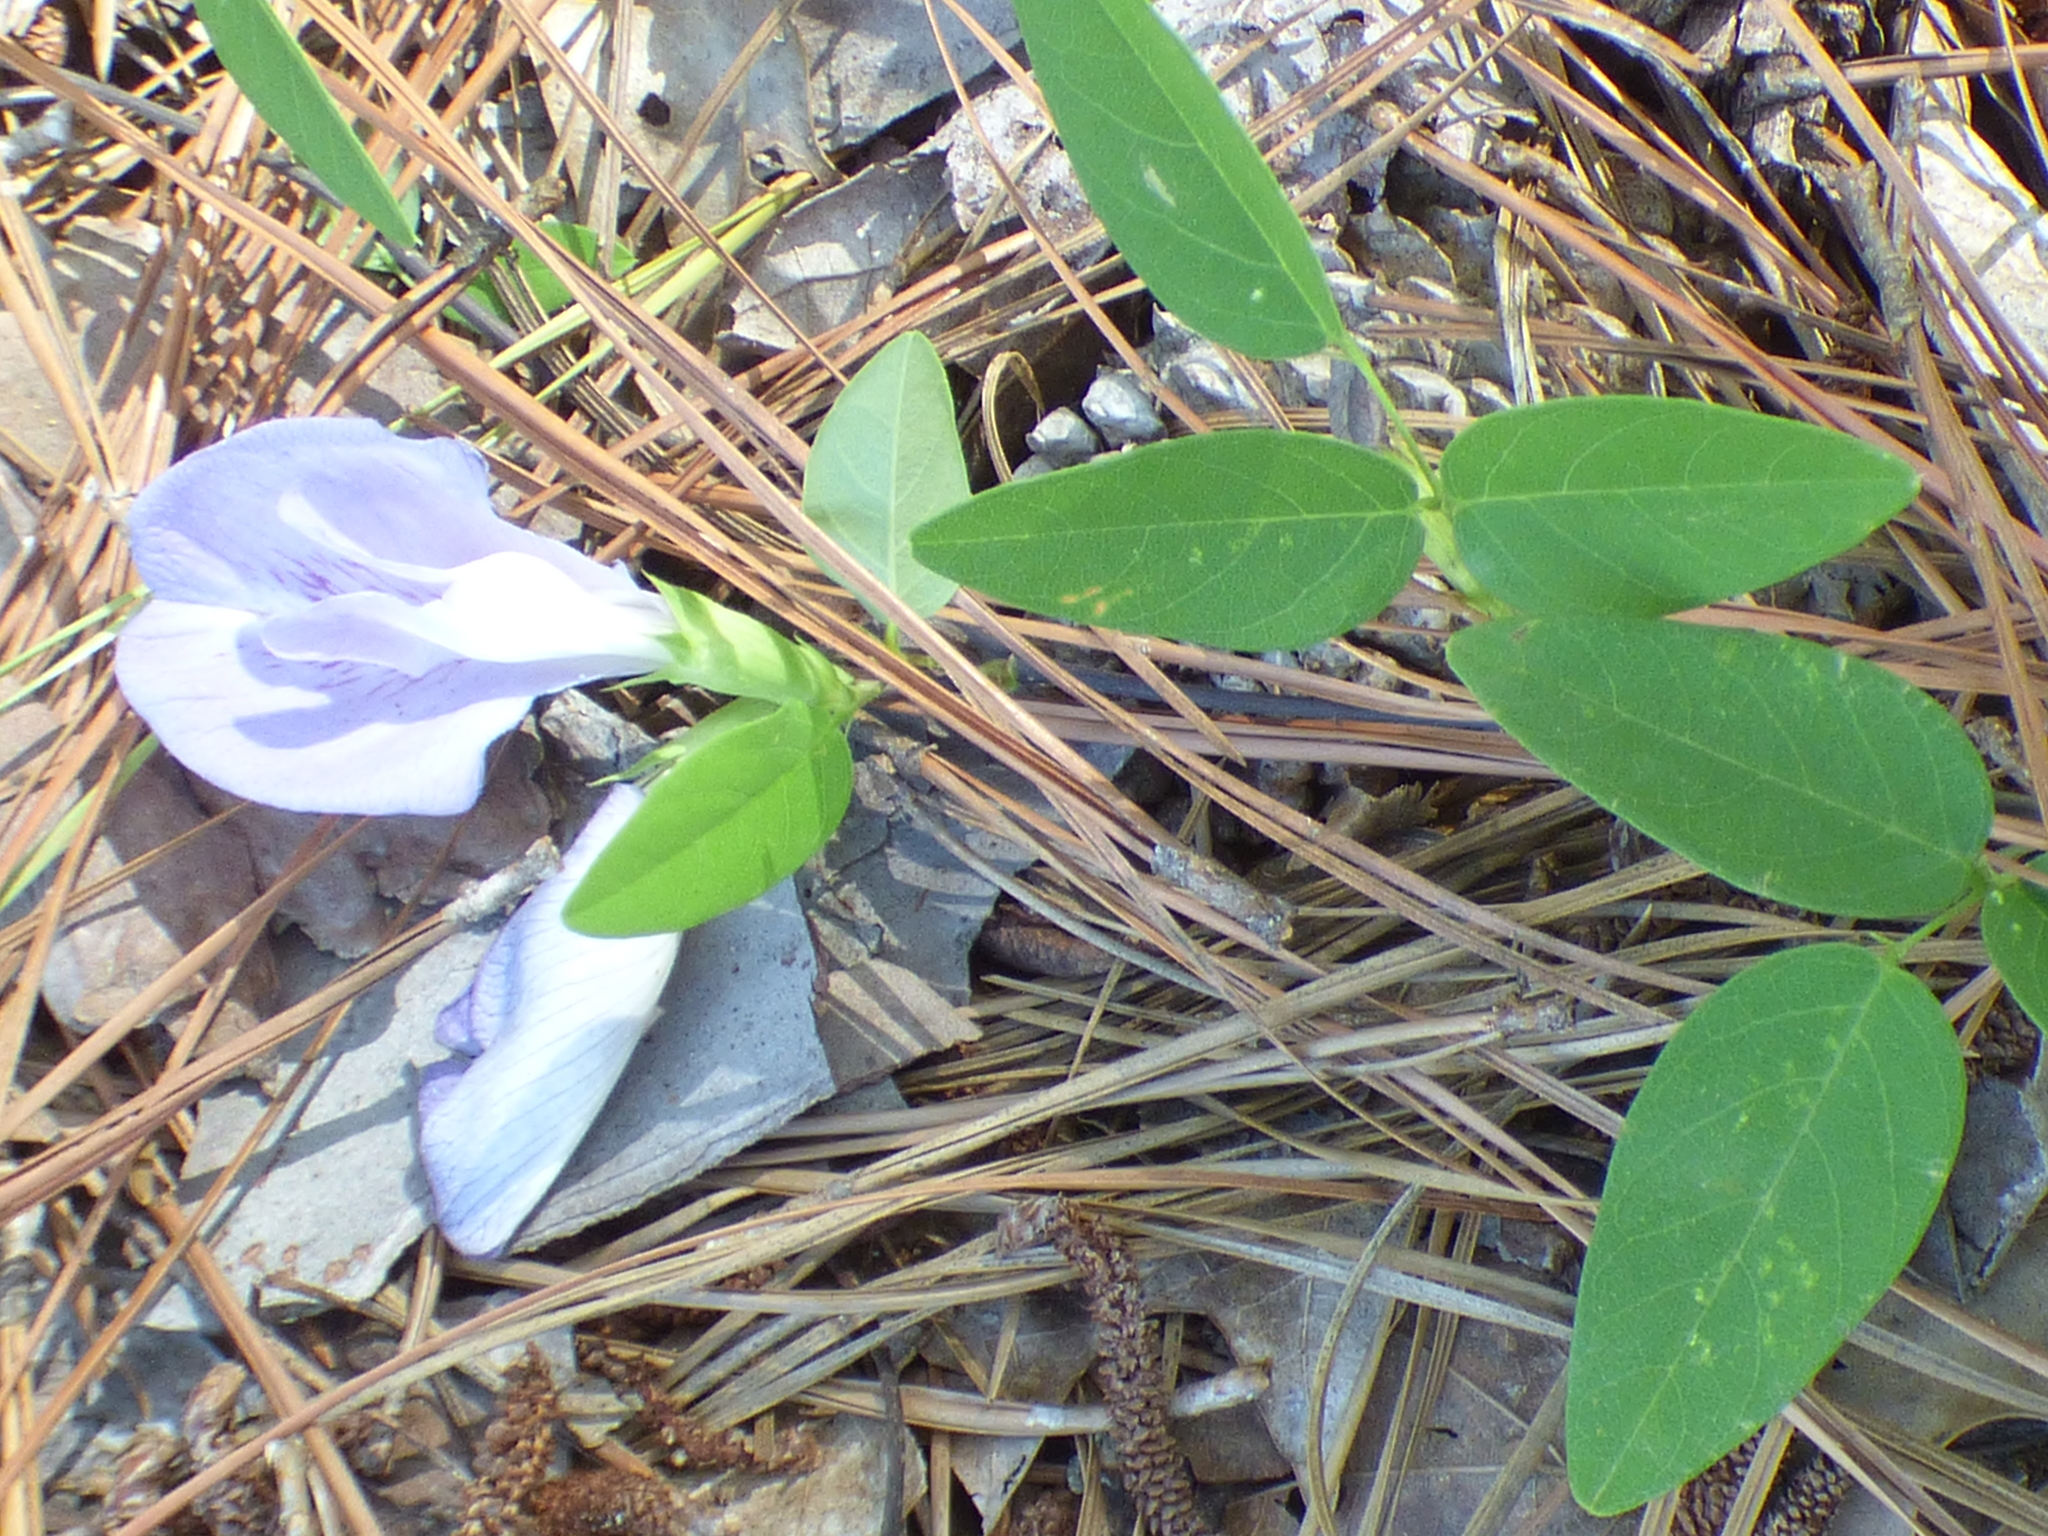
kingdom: Plantae
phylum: Tracheophyta
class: Magnoliopsida
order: Fabales
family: Fabaceae
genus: Clitoria
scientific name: Clitoria mariana
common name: Butterfly-pea
